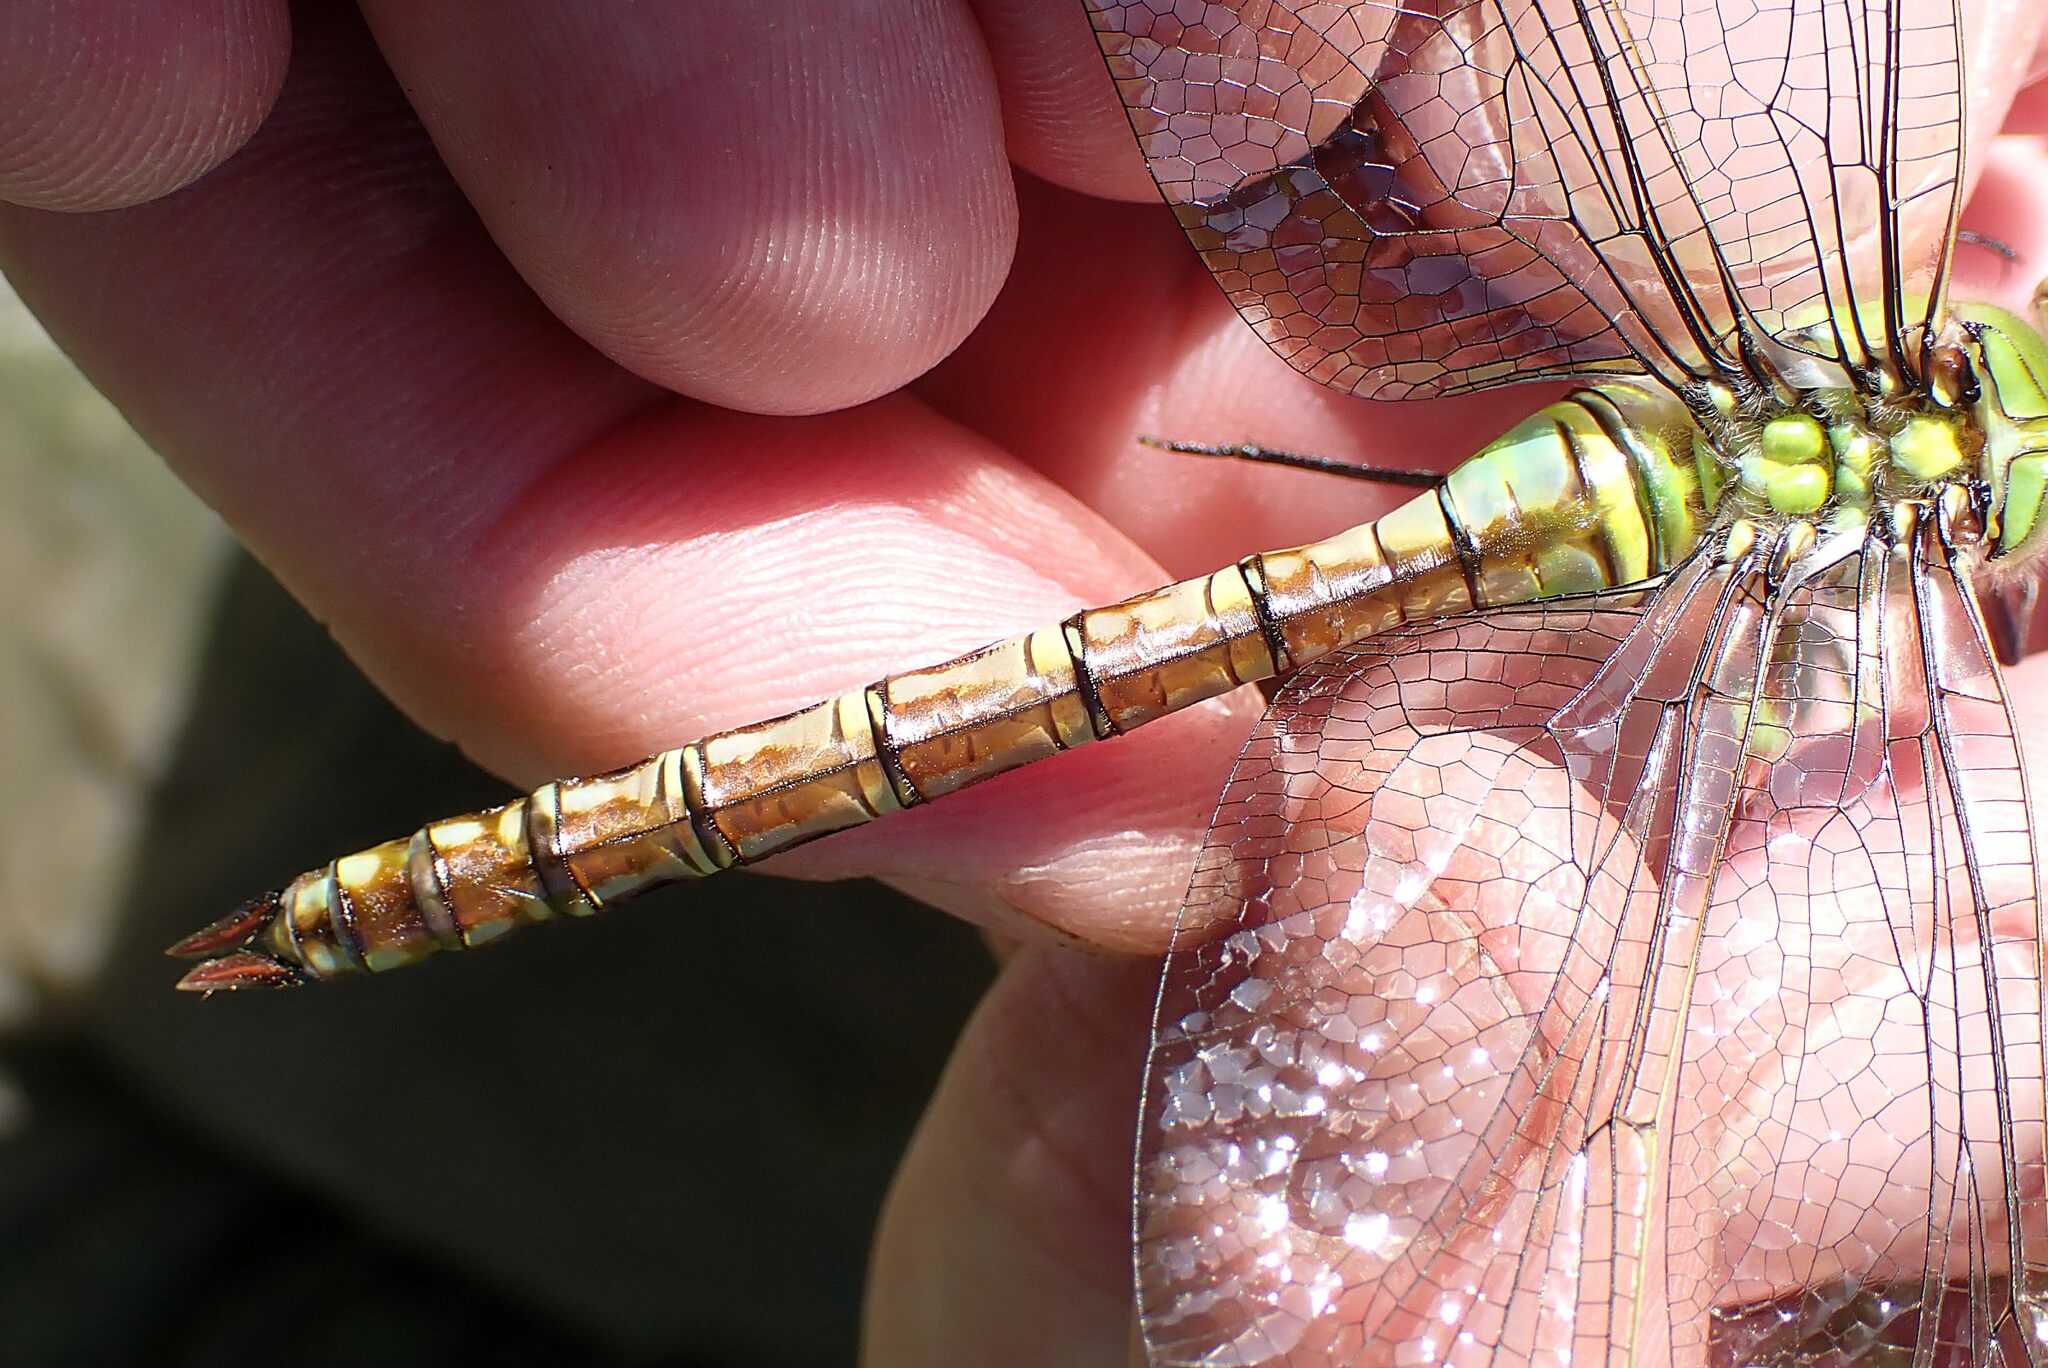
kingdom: Animalia
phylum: Arthropoda
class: Insecta
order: Odonata
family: Aeshnidae
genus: Anax
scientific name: Anax imperator
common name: Emperor dragonfly
